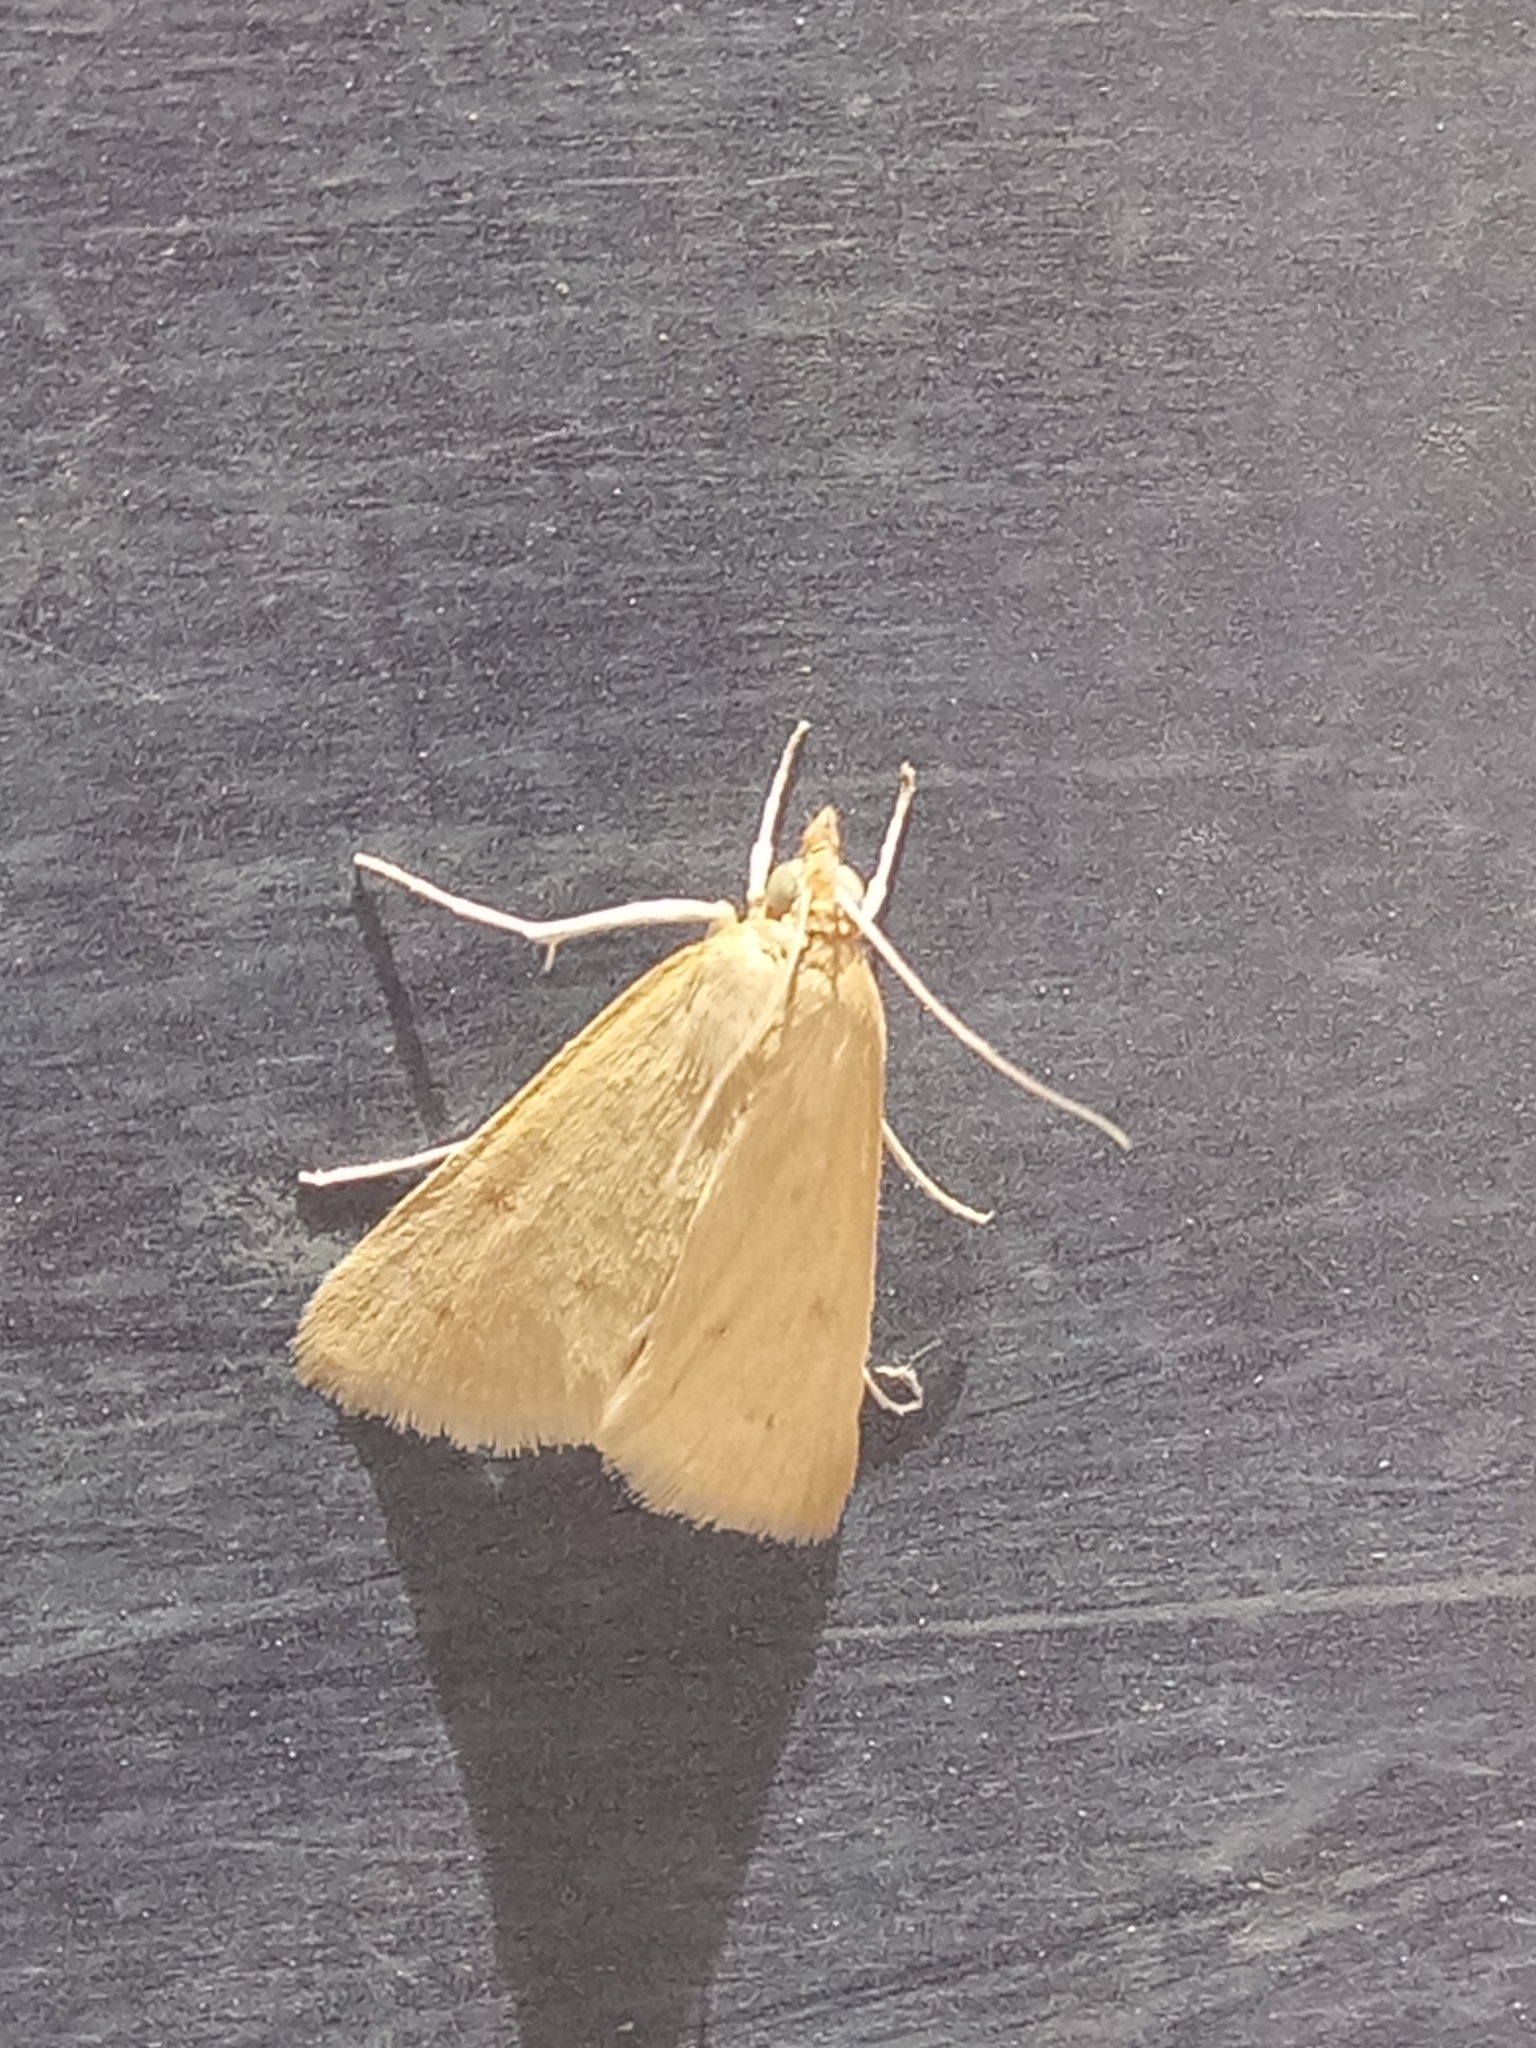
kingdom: Animalia
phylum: Arthropoda
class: Insecta
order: Lepidoptera
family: Crambidae
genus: Achyra
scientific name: Achyra nudalis
